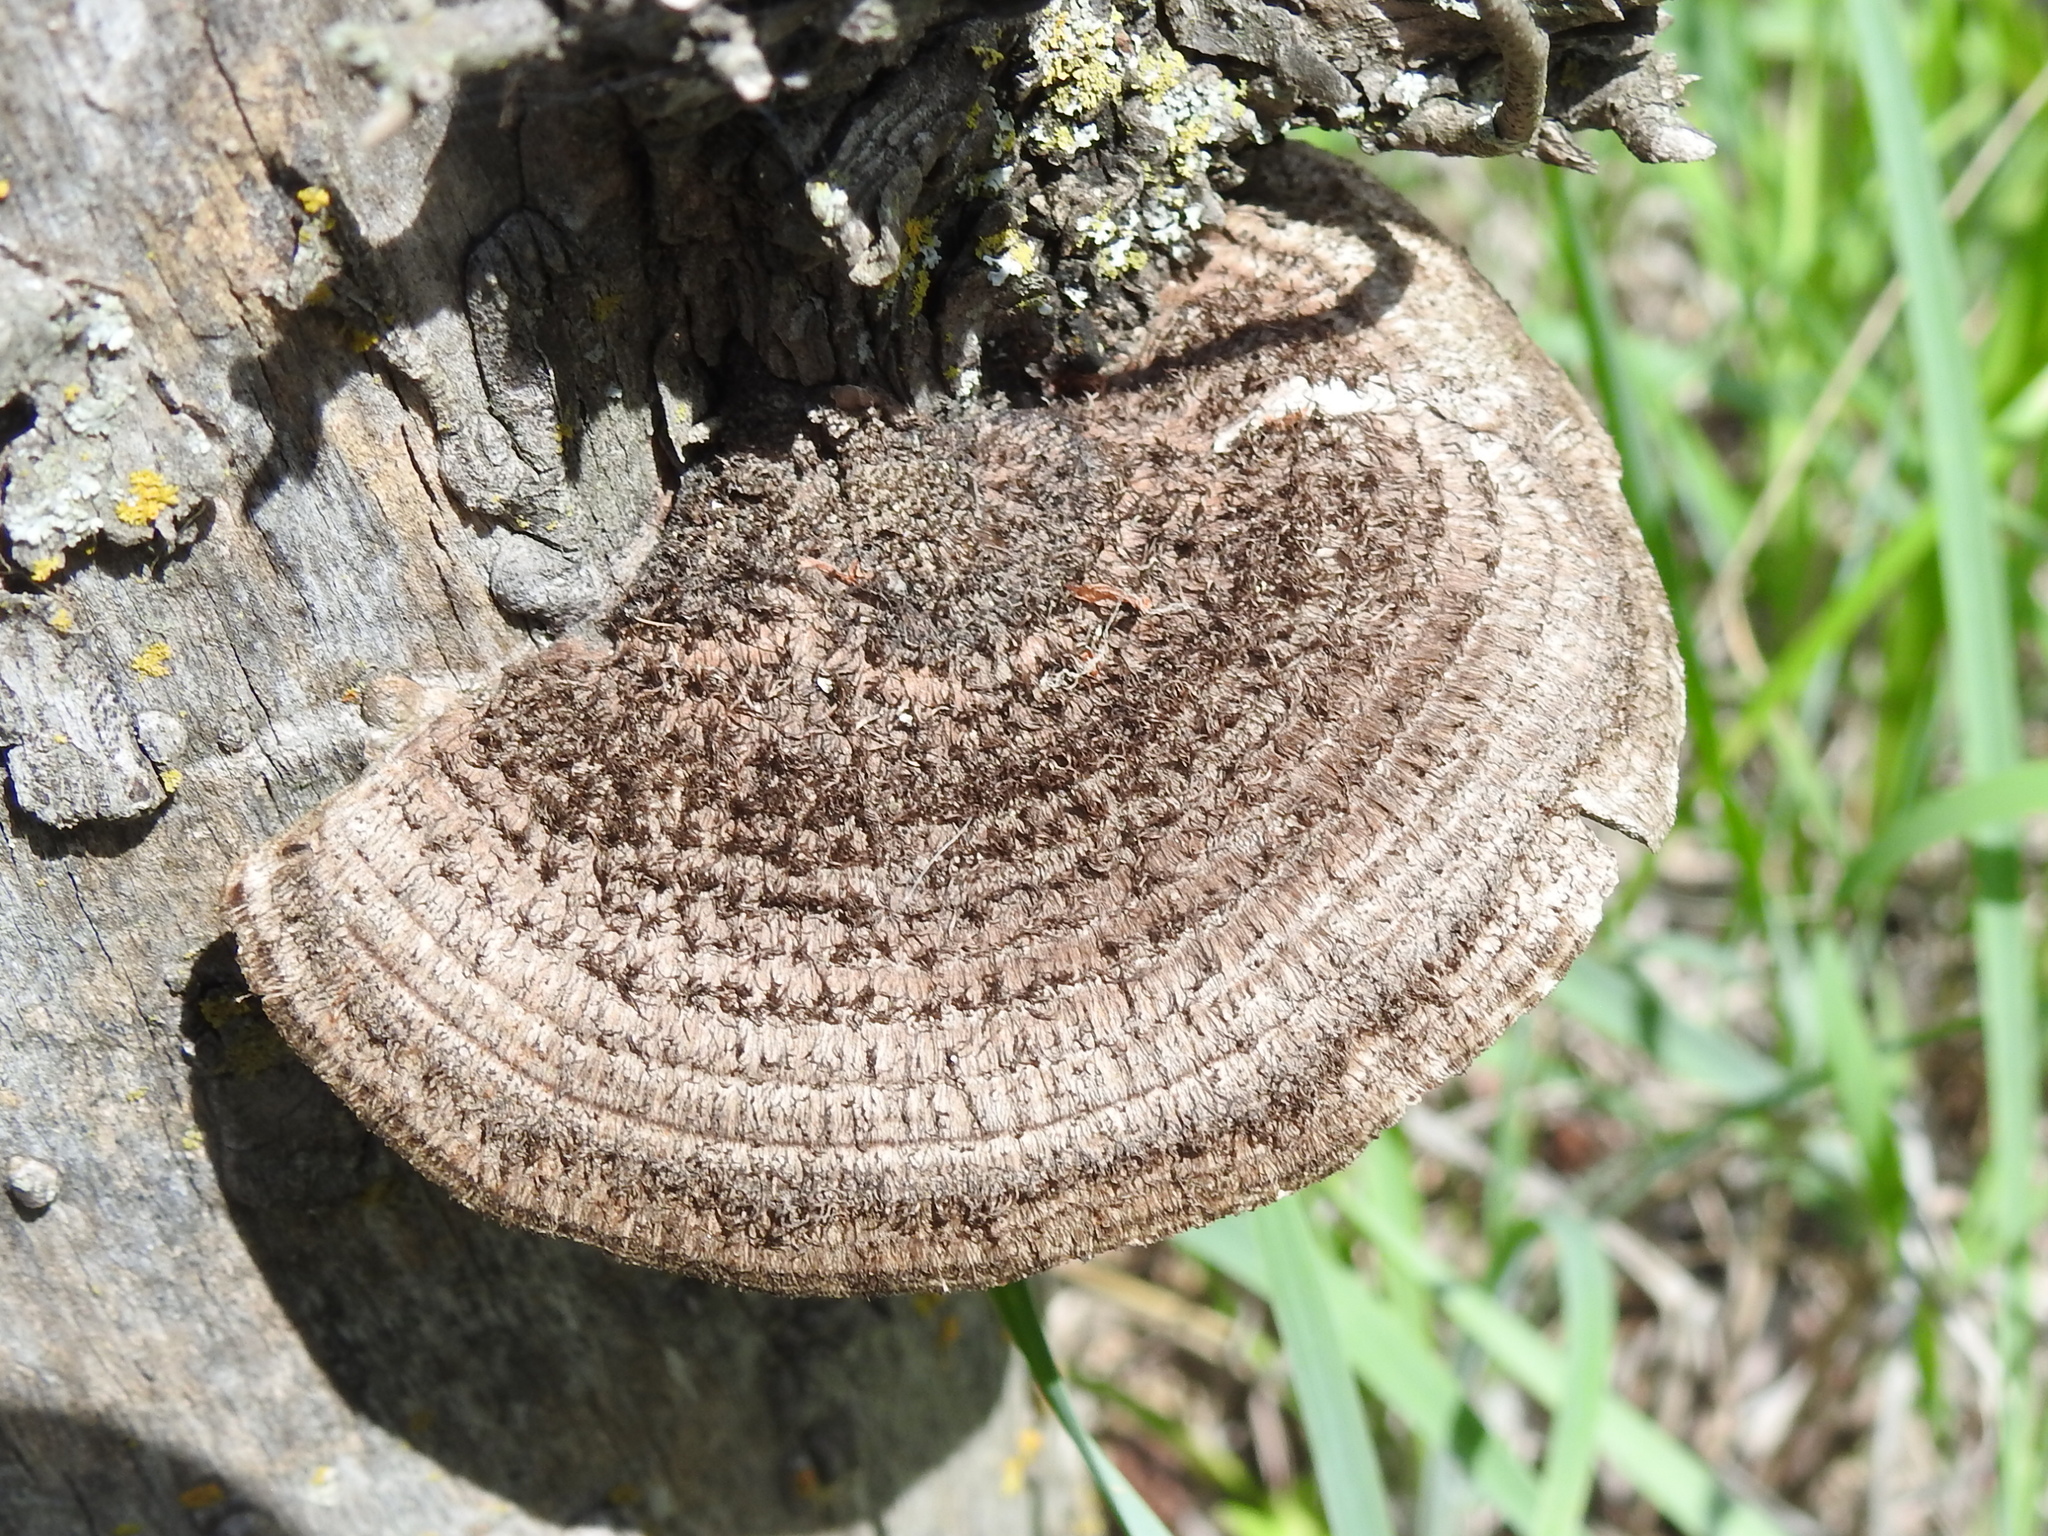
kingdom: Fungi
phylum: Basidiomycota
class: Agaricomycetes
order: Polyporales
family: Cerrenaceae
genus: Cerrena
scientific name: Cerrena hydnoides
